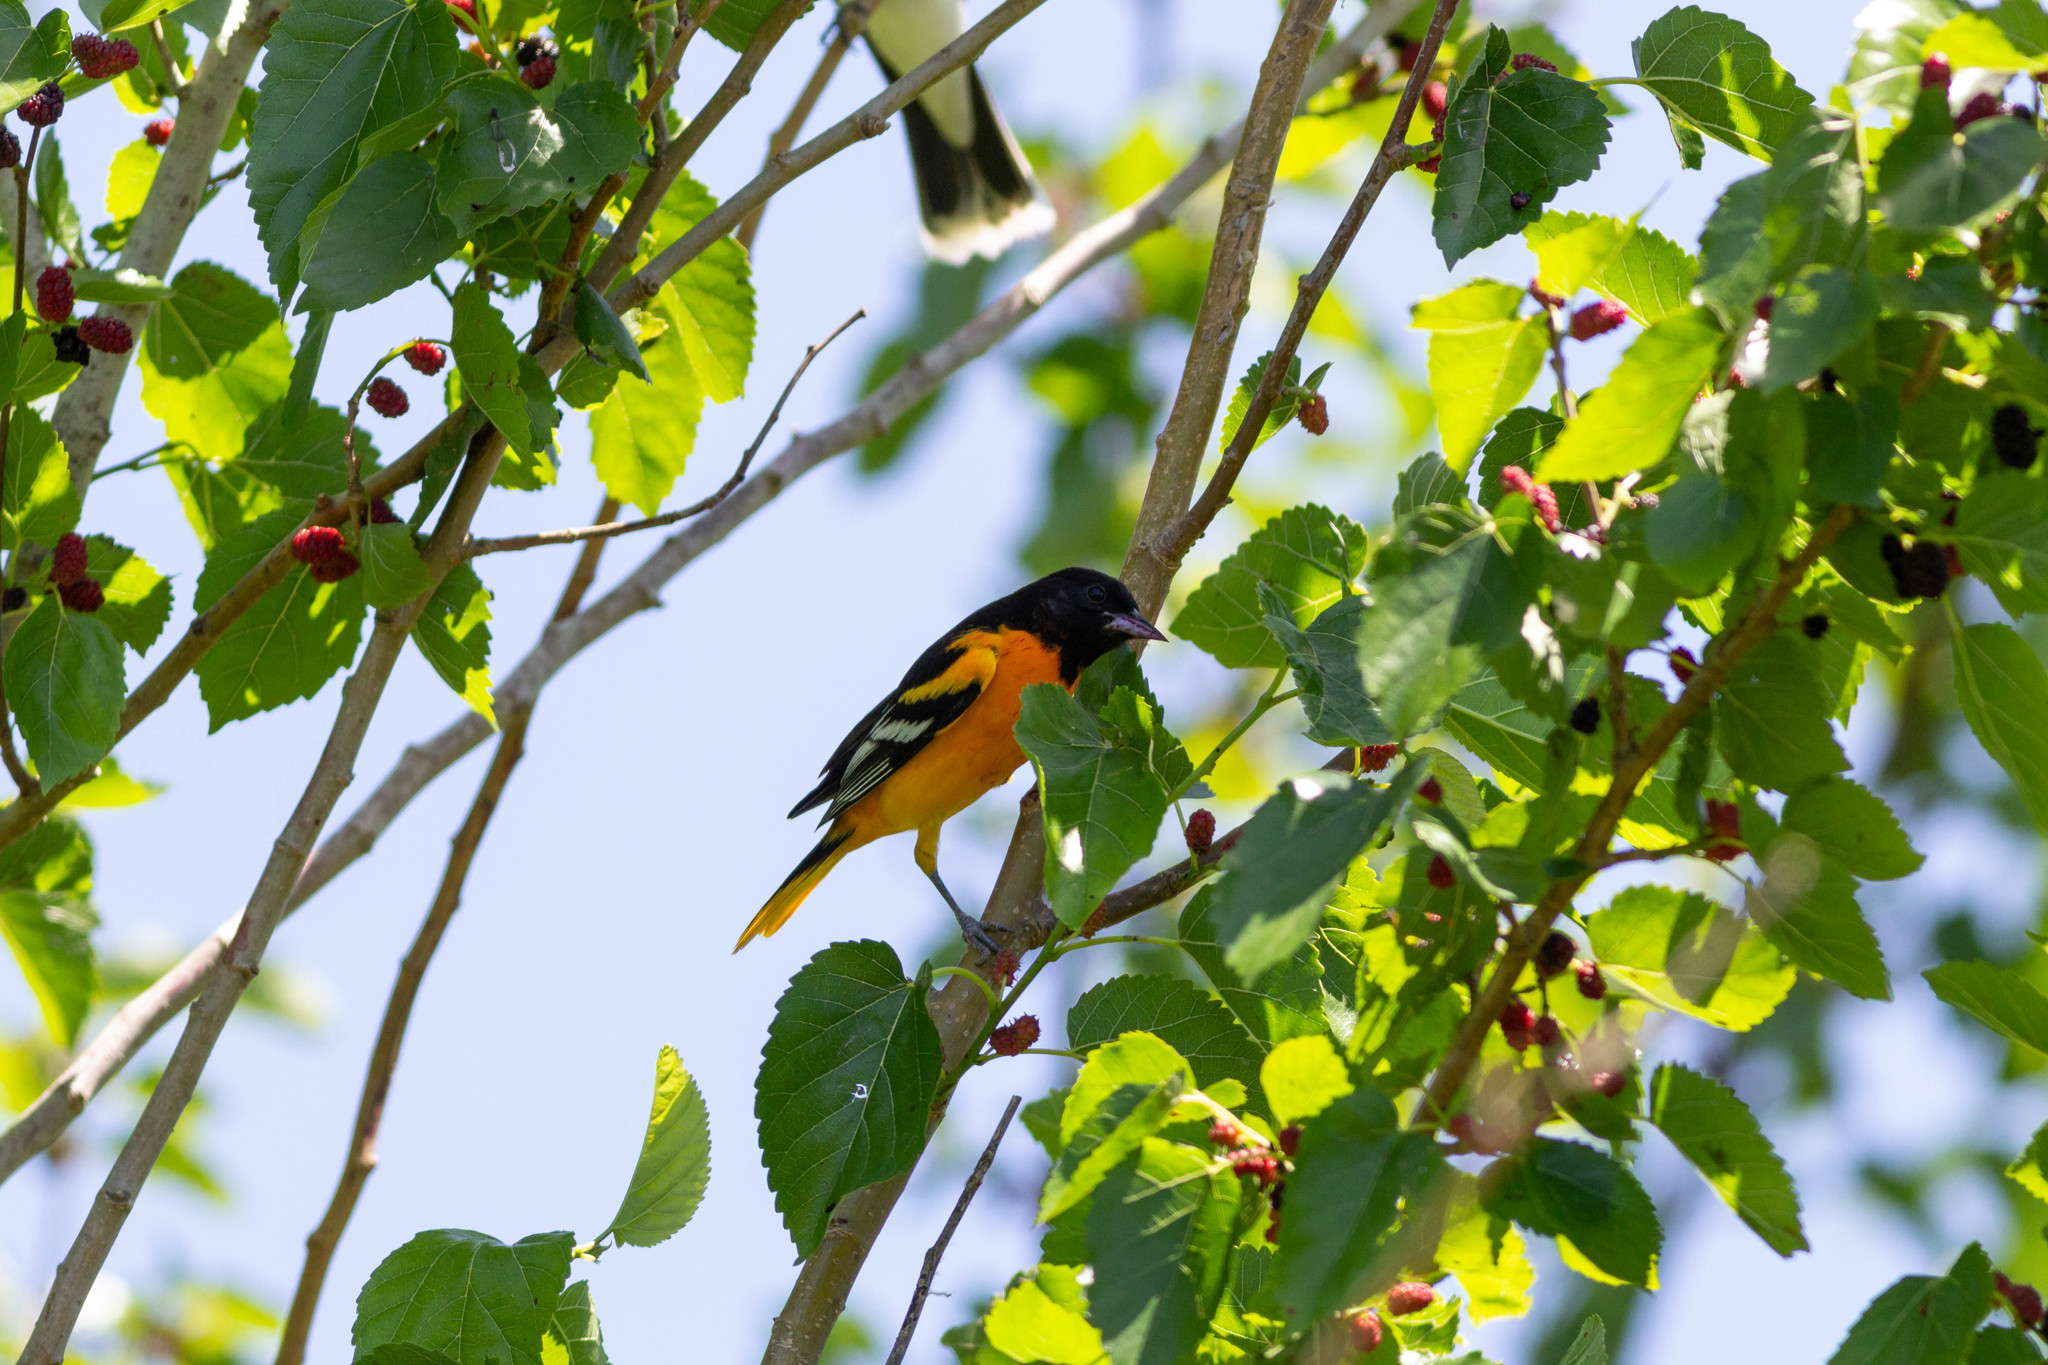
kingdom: Animalia
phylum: Chordata
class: Aves
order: Passeriformes
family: Icteridae
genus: Icterus
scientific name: Icterus galbula
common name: Baltimore oriole
